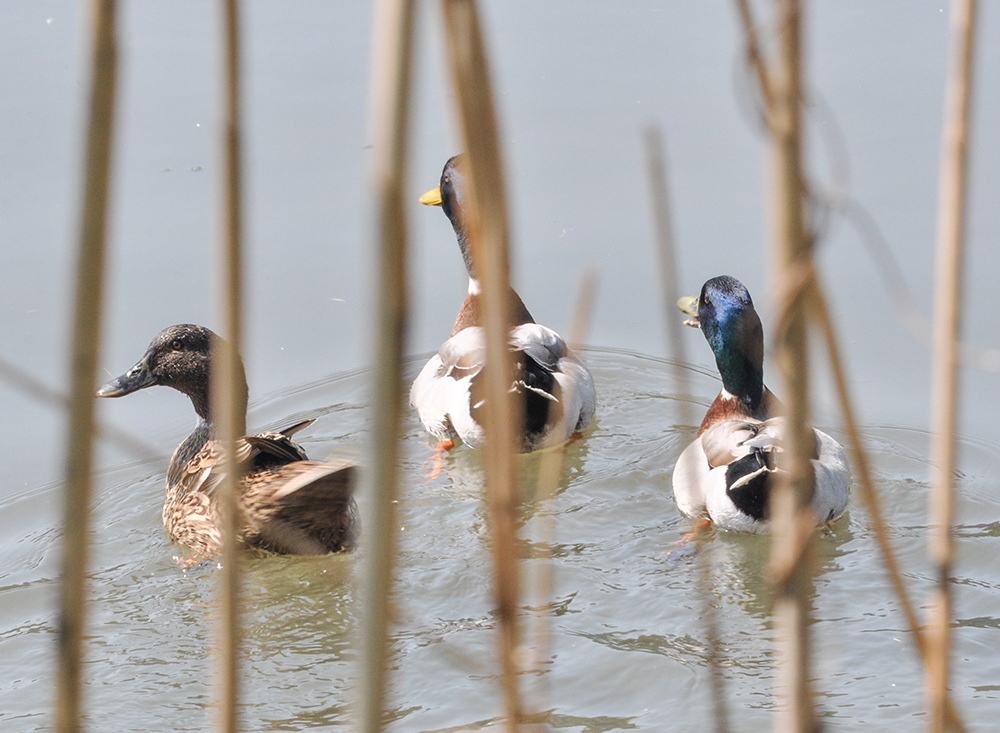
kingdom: Animalia
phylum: Chordata
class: Aves
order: Anseriformes
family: Anatidae
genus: Anas
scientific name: Anas platyrhynchos
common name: Mallard
